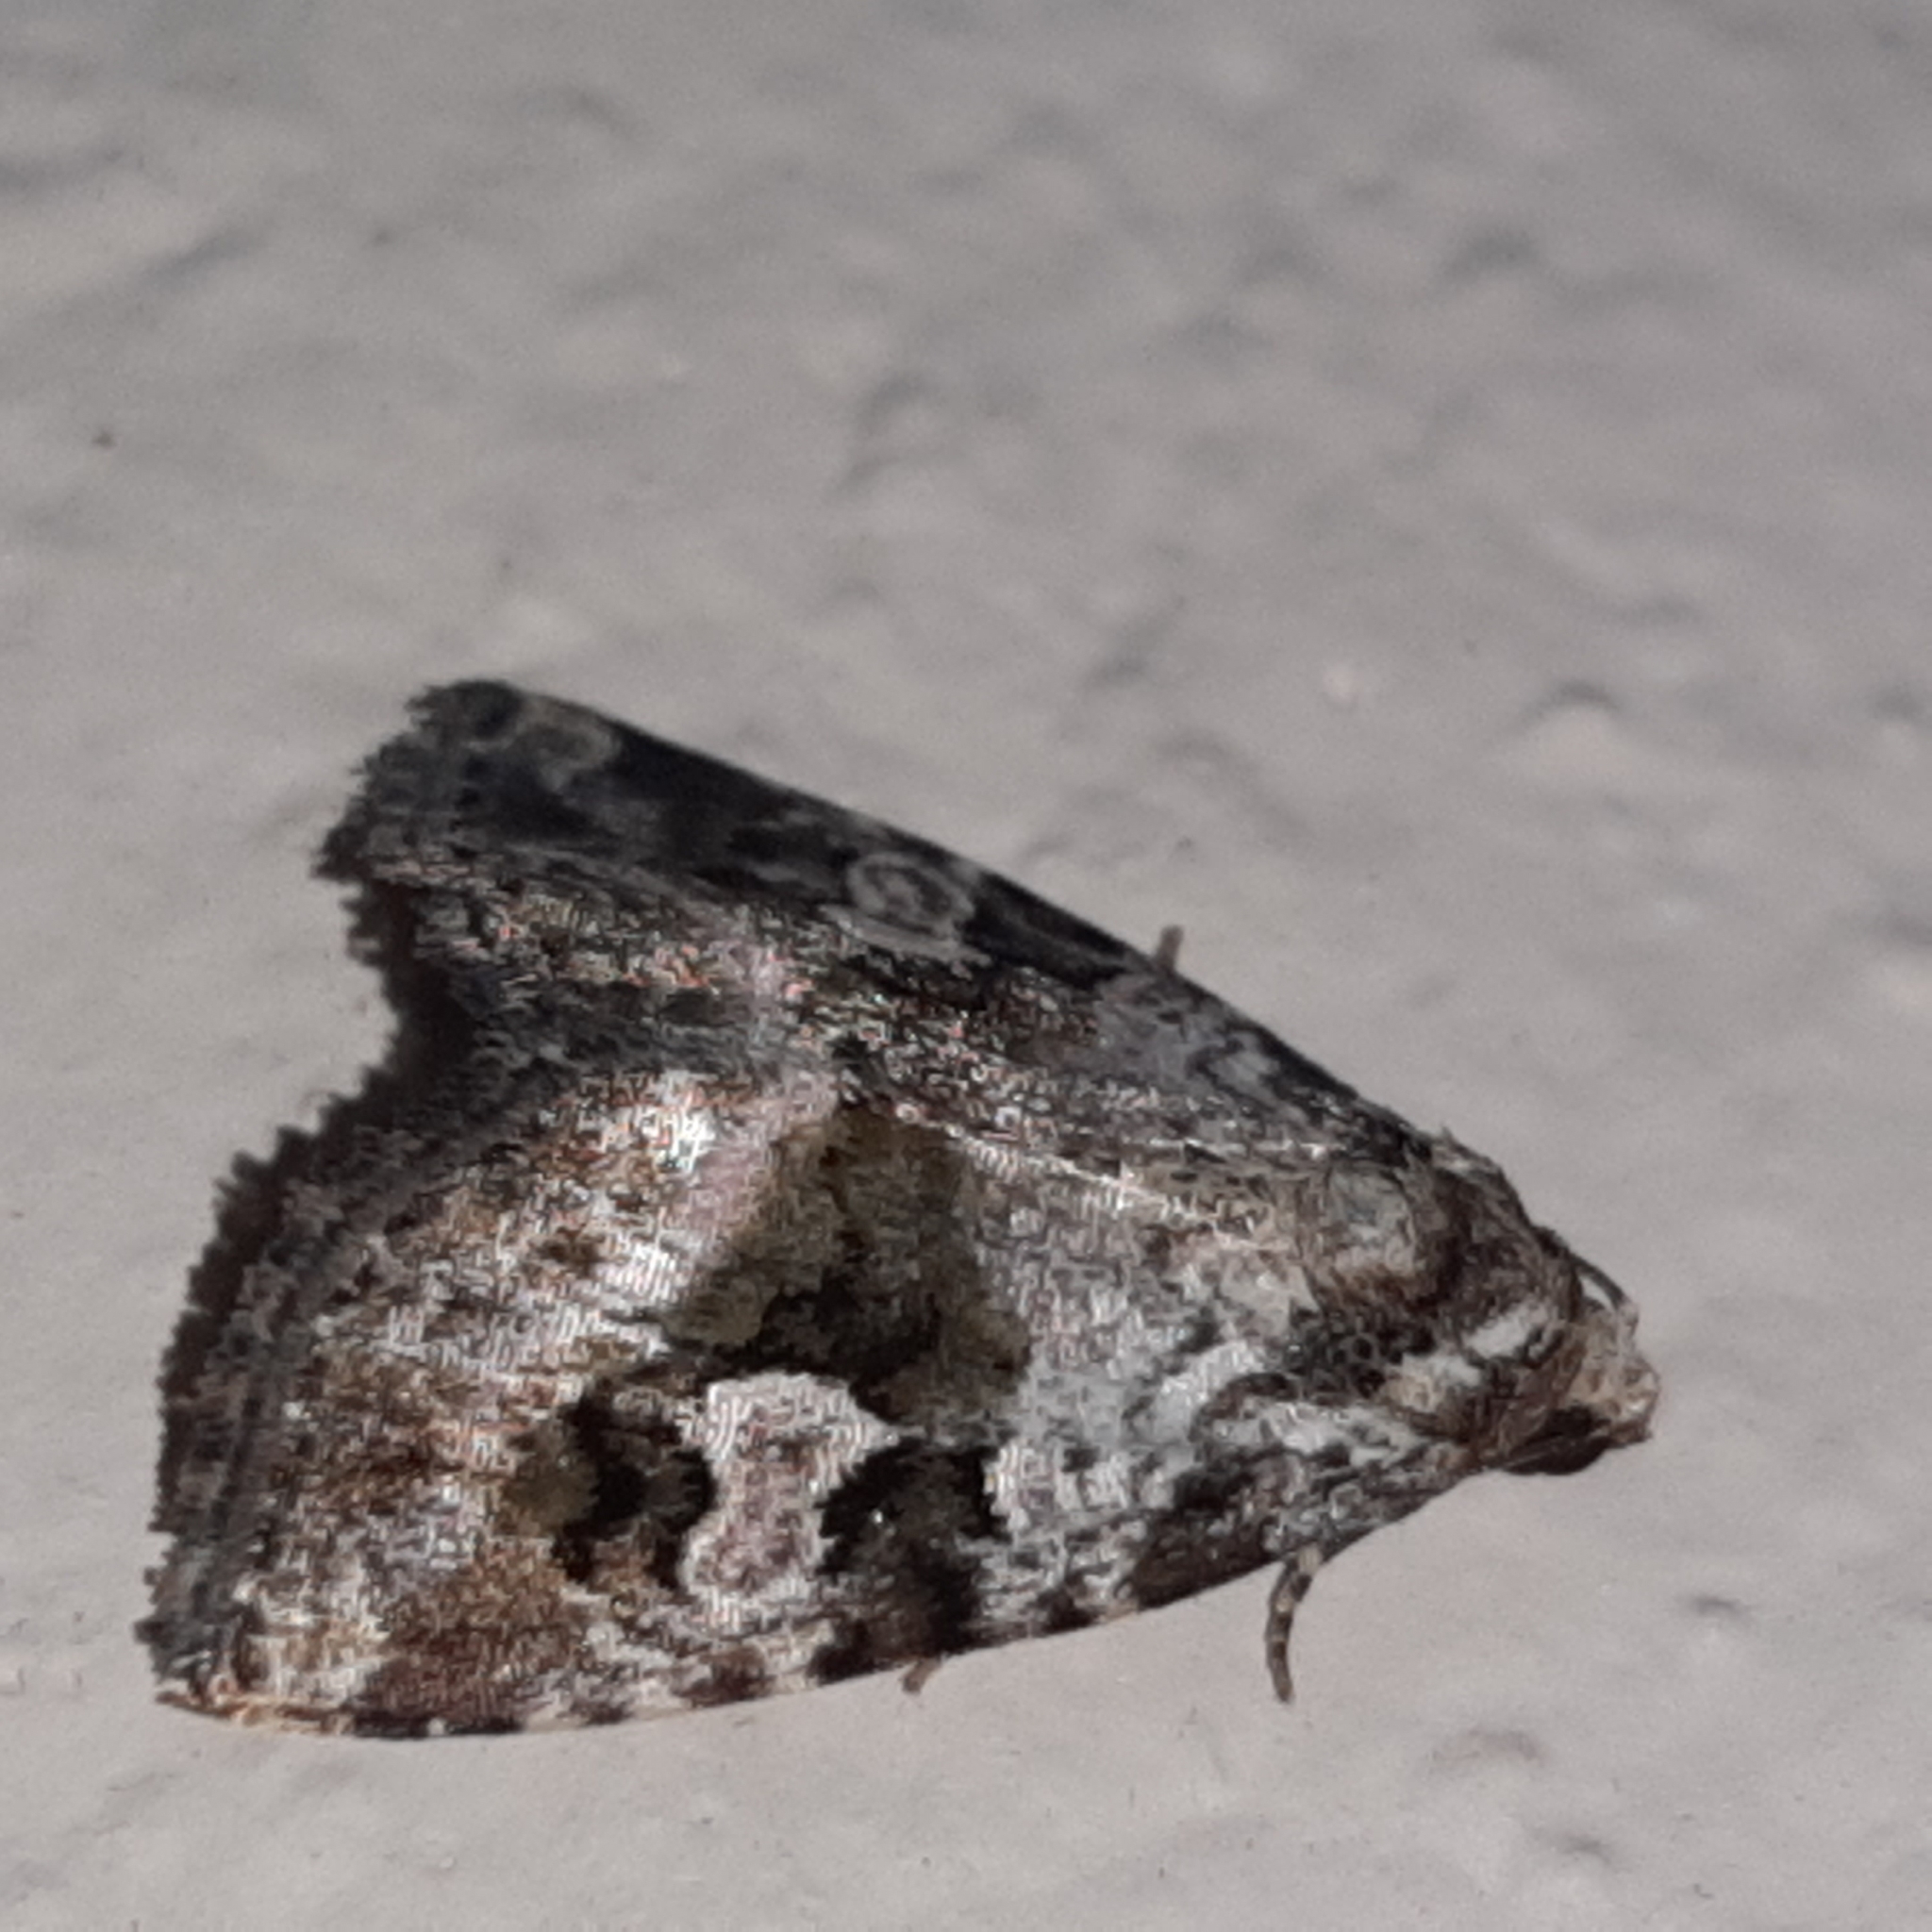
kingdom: Animalia
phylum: Arthropoda
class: Insecta
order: Lepidoptera
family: Noctuidae
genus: Mictochroa
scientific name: Mictochroa zonella
